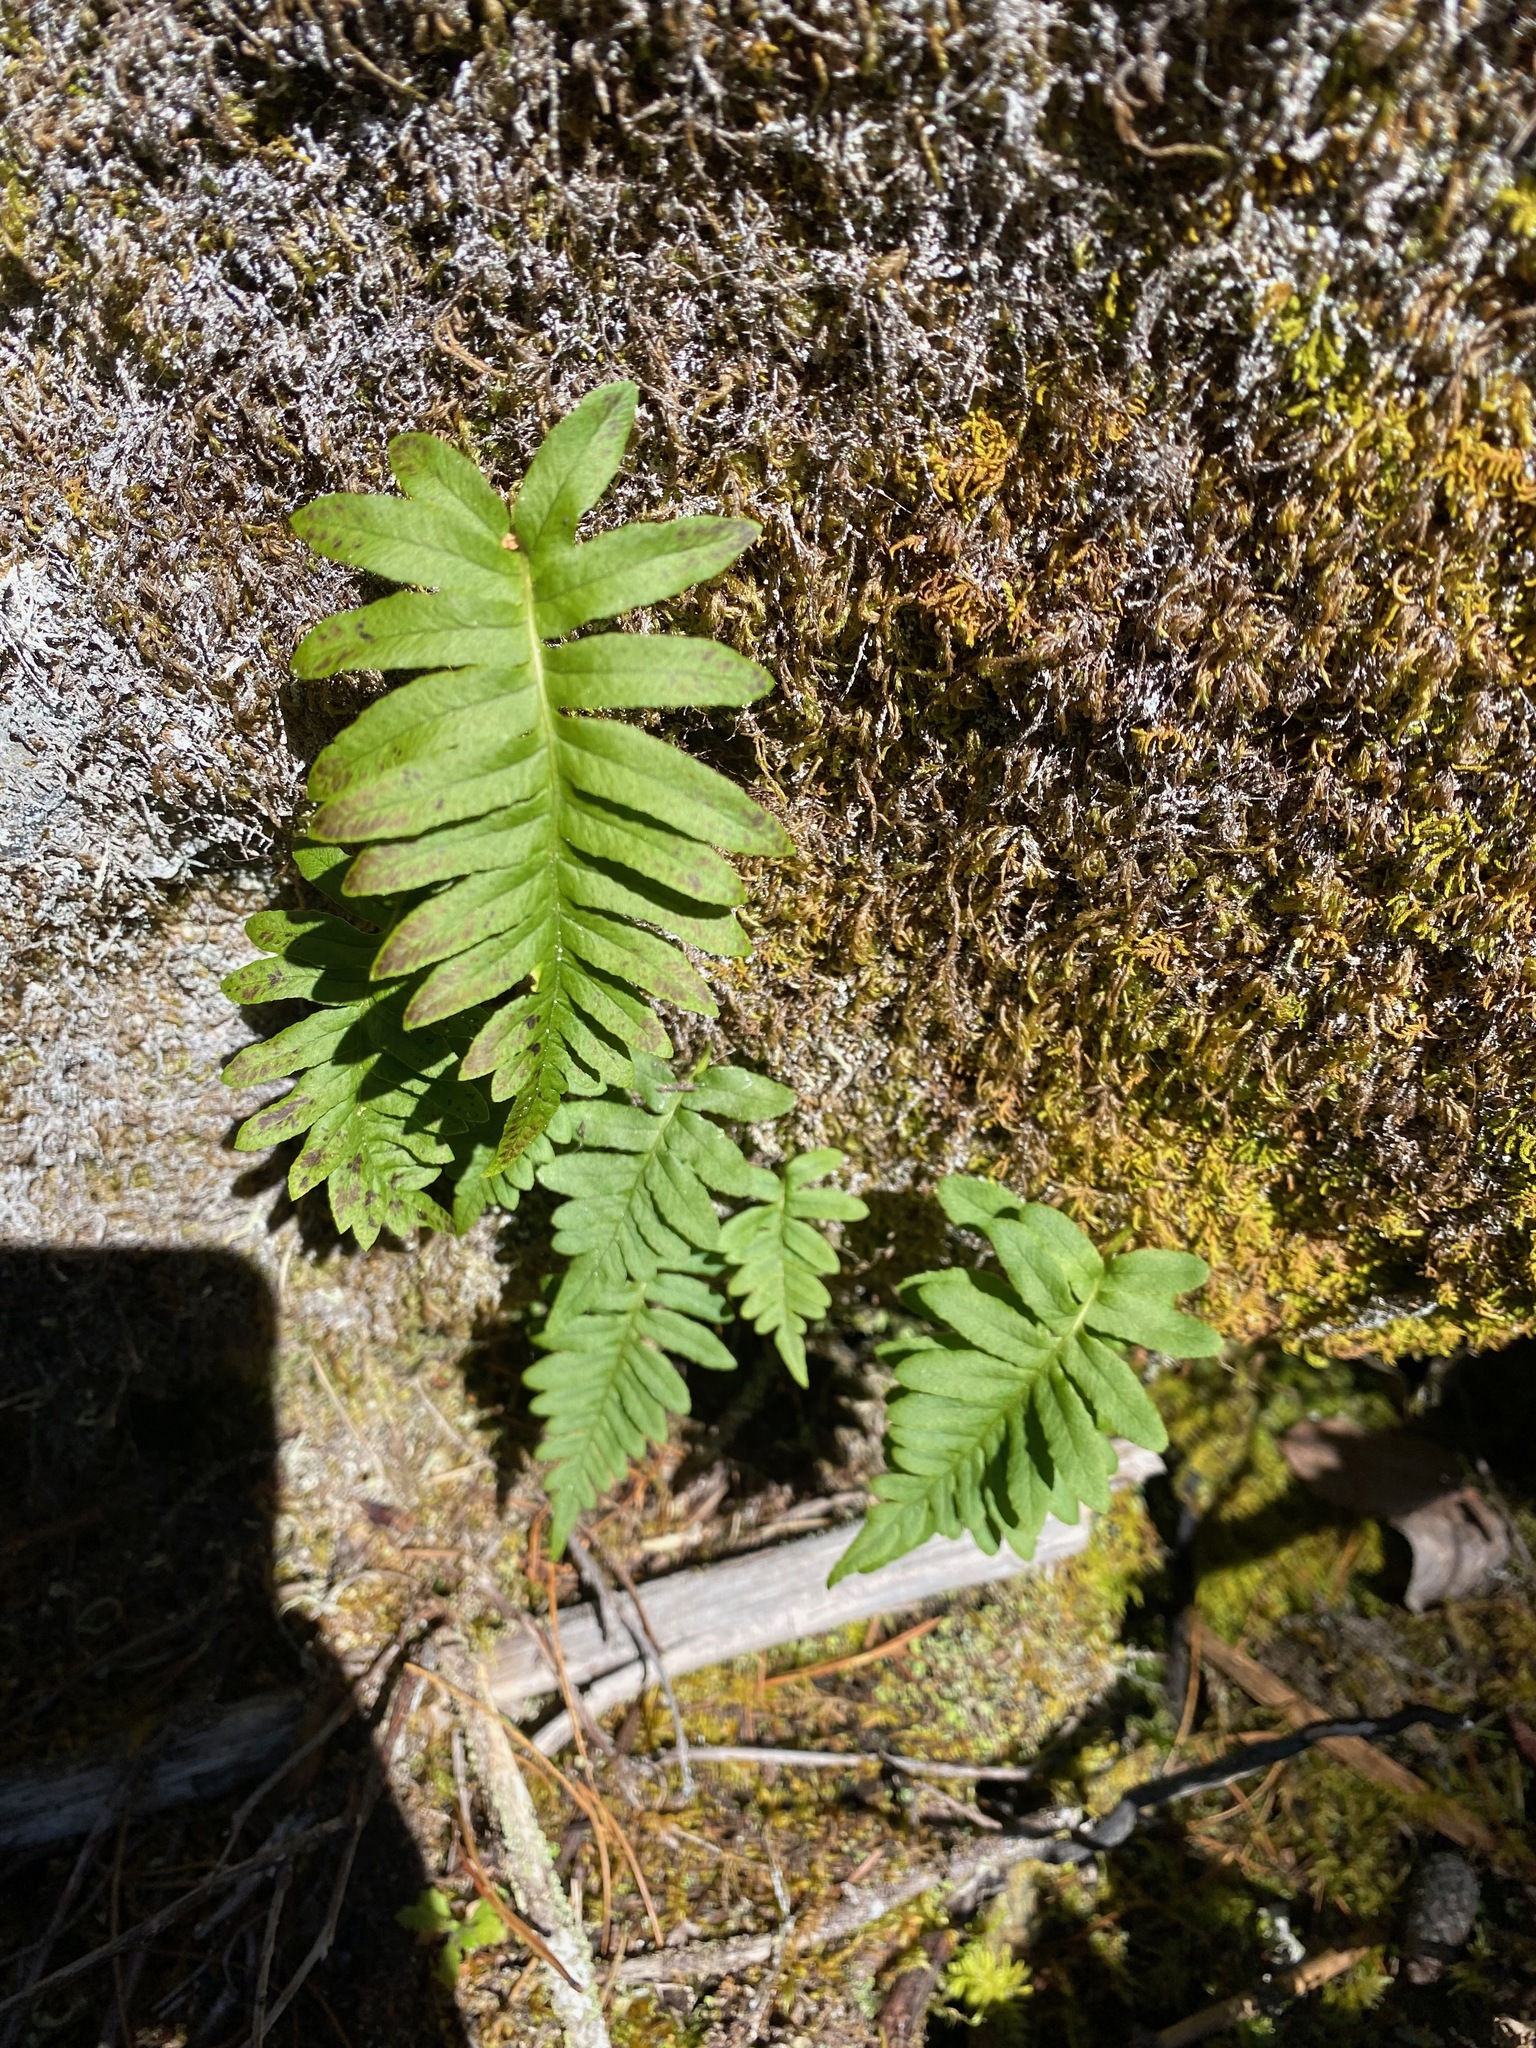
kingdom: Plantae
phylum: Tracheophyta
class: Polypodiopsida
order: Polypodiales
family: Polypodiaceae
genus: Polypodium
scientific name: Polypodium glycyrrhiza
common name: Licorice fern
